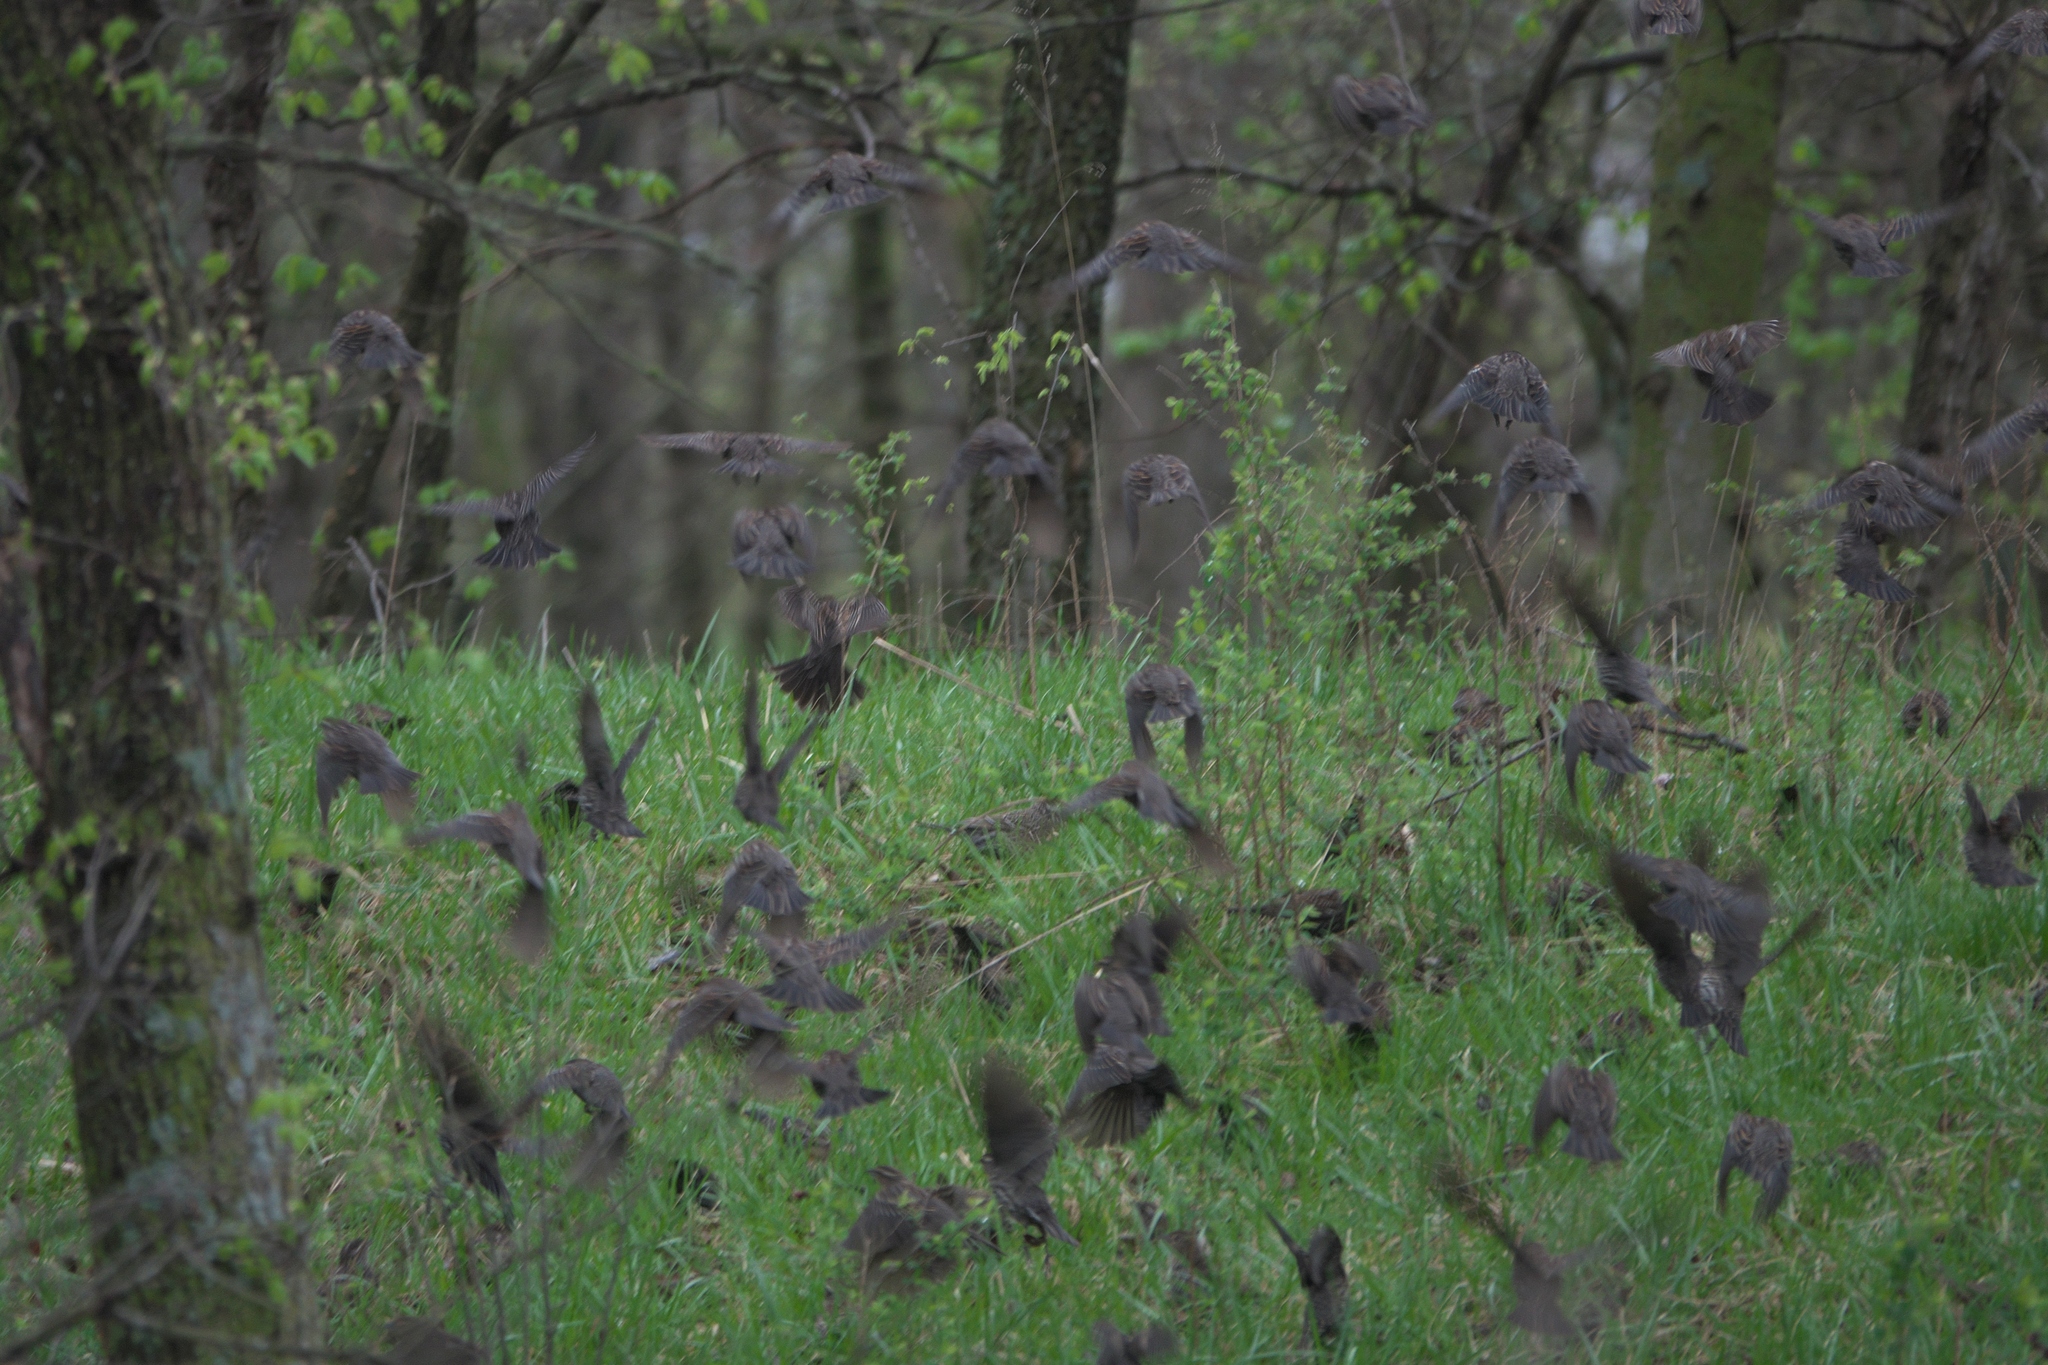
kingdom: Animalia
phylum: Chordata
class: Aves
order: Passeriformes
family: Icteridae
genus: Agelaius
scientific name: Agelaius phoeniceus
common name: Red-winged blackbird
